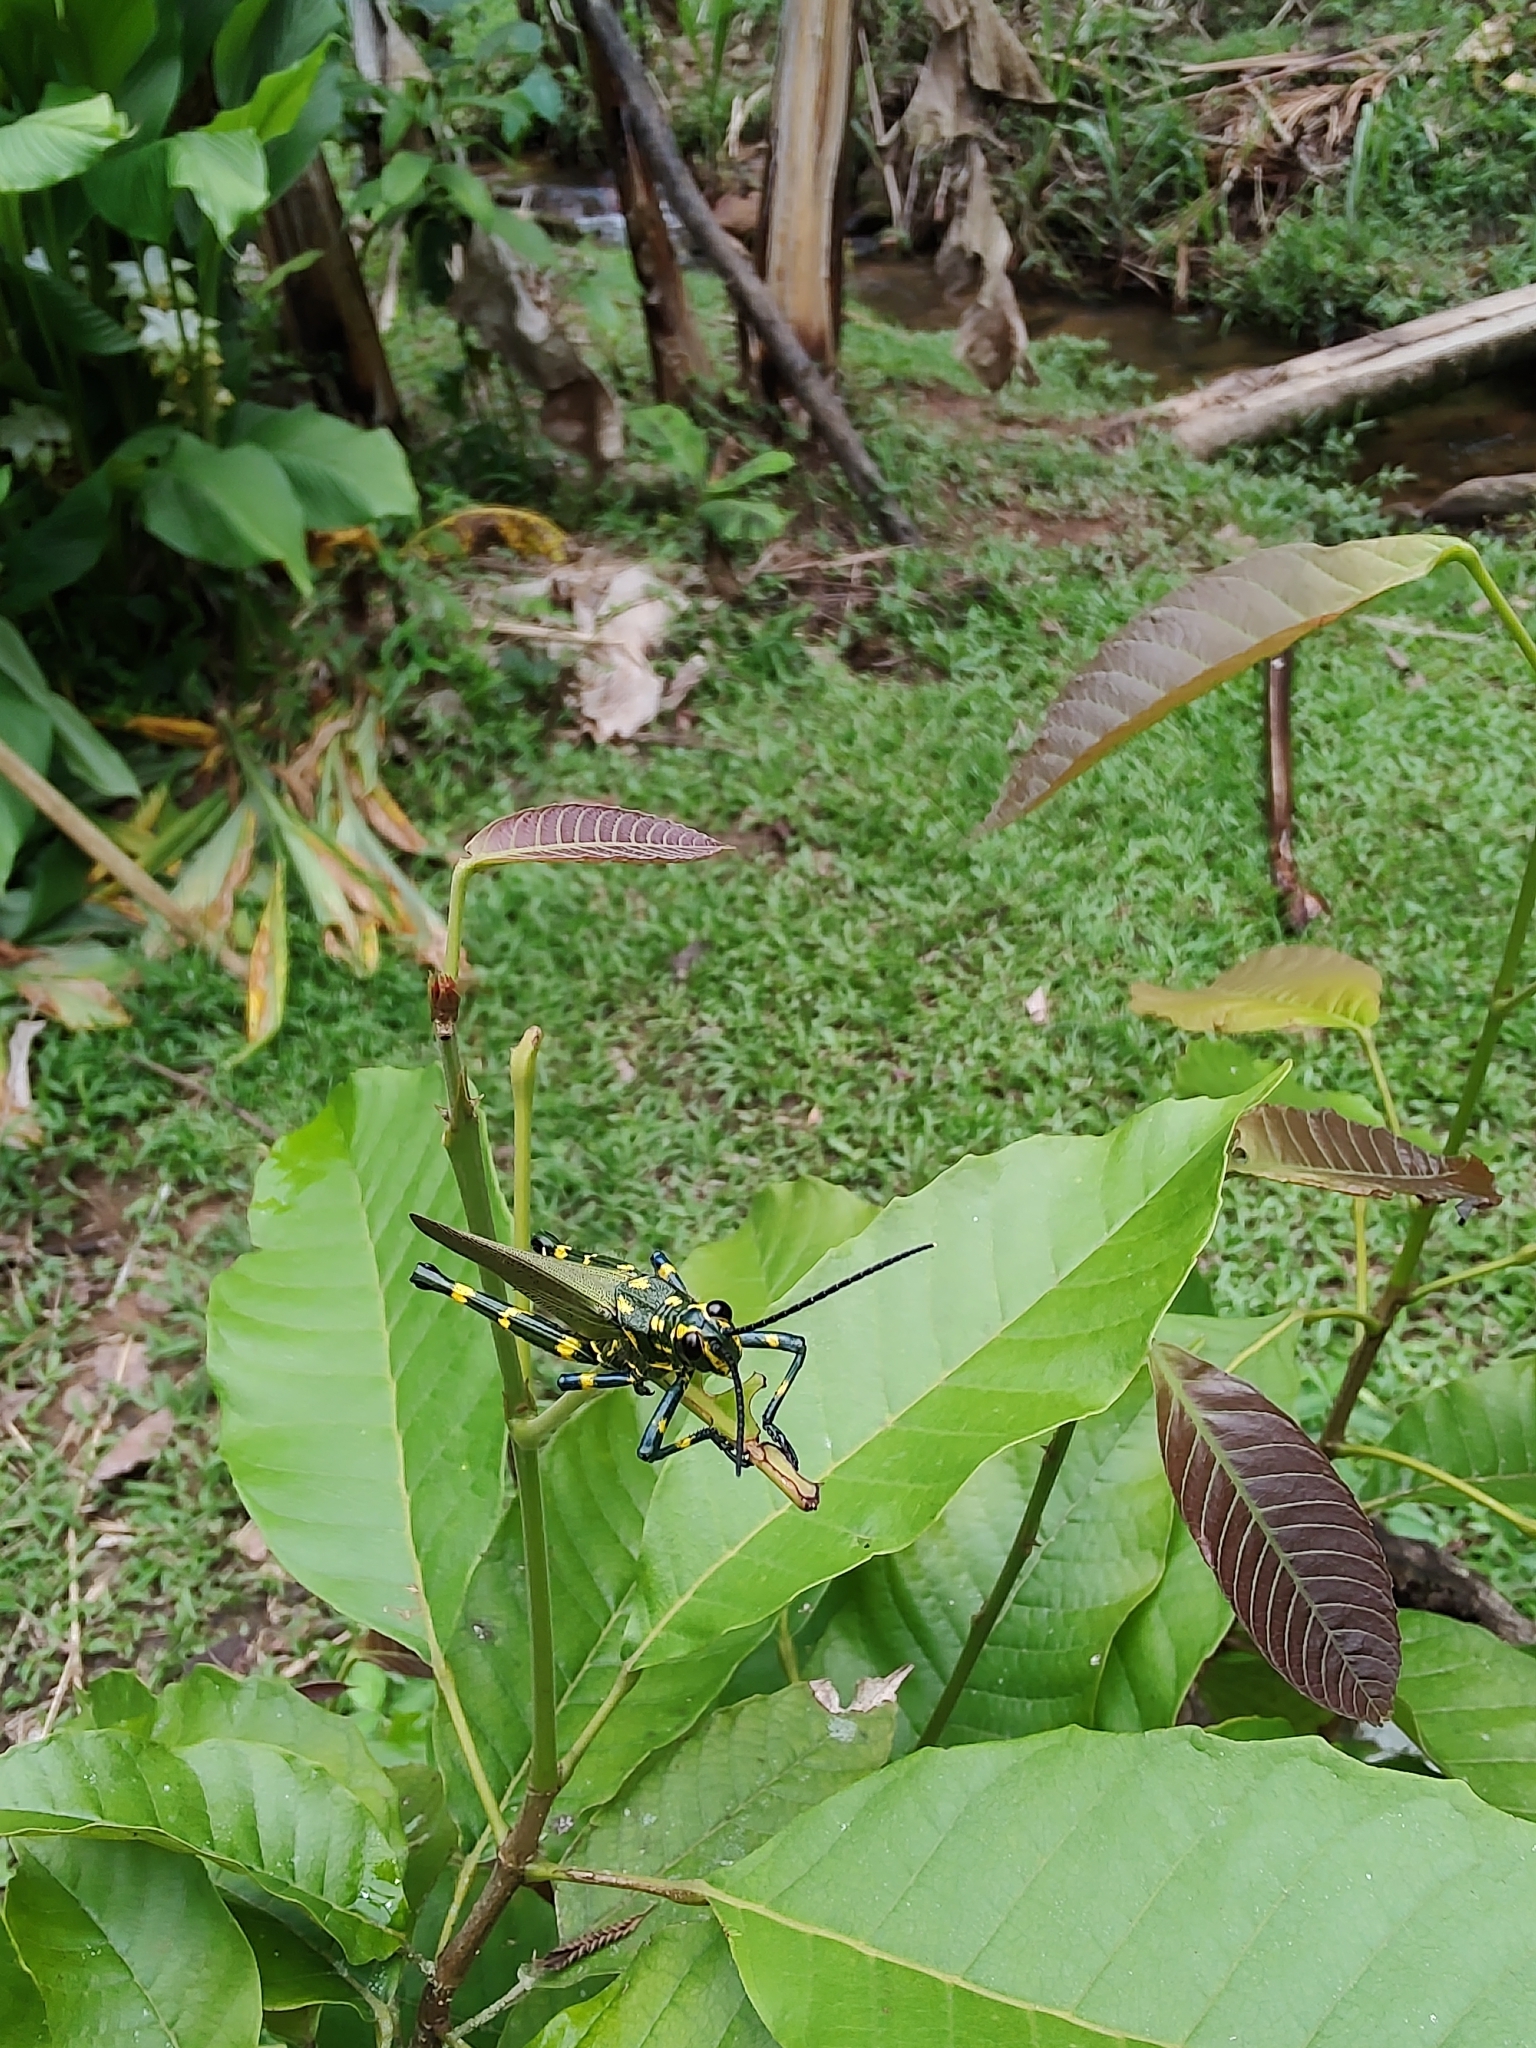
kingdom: Animalia
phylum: Arthropoda
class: Insecta
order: Orthoptera
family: Romaleidae
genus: Chromacris
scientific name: Chromacris speciosa
